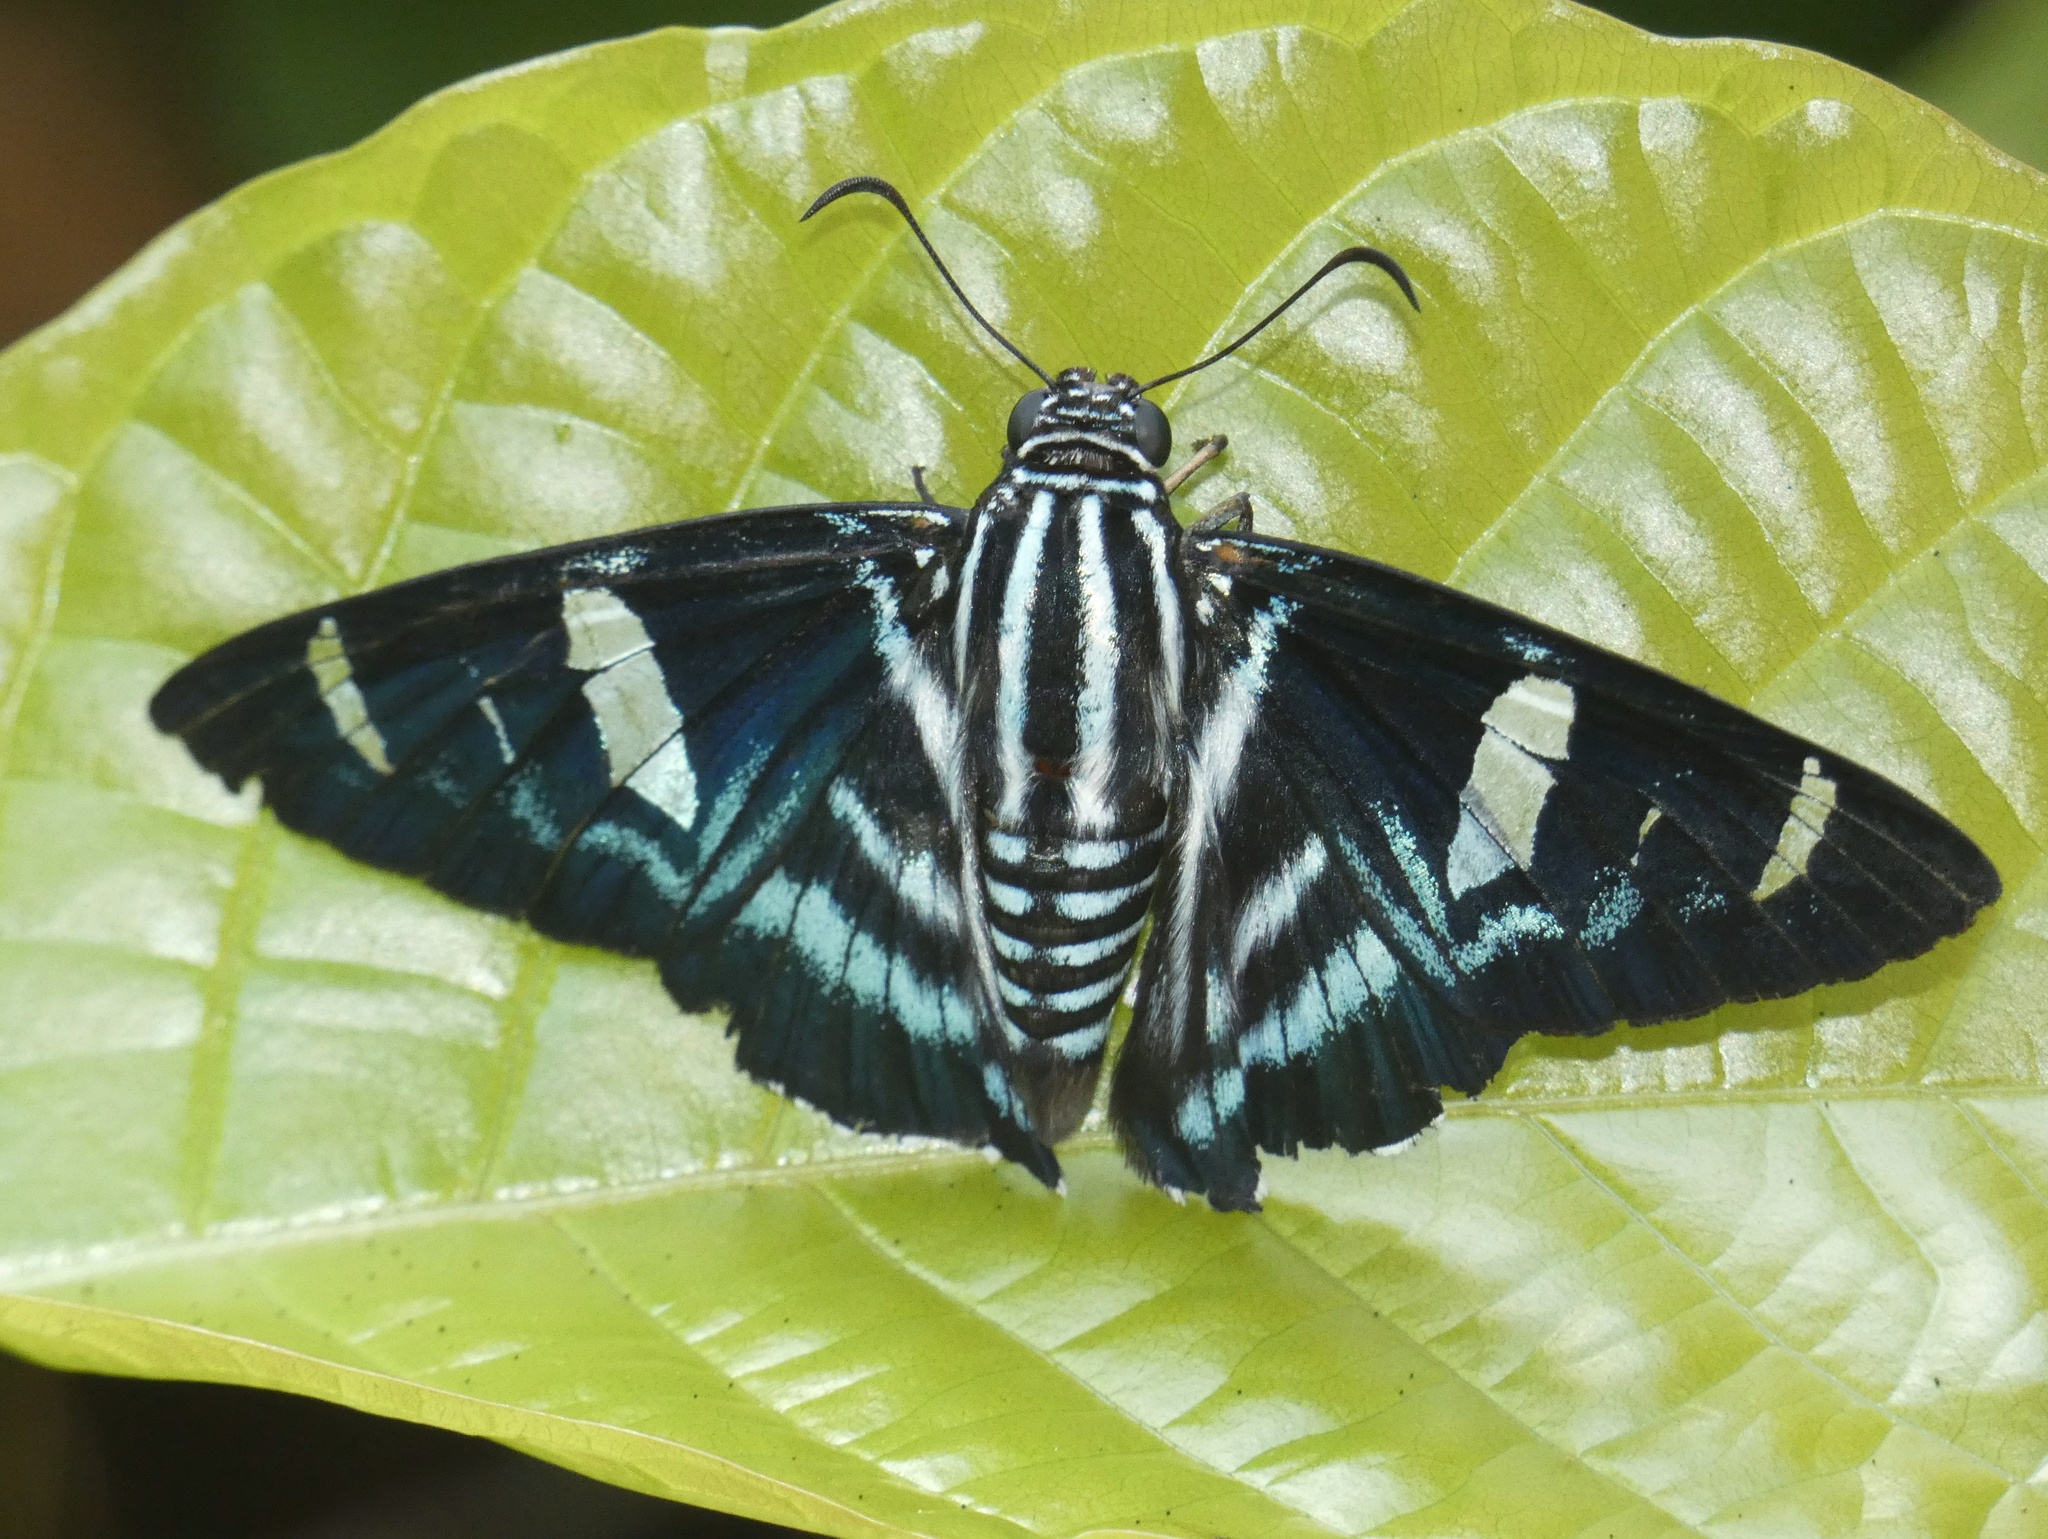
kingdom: Animalia
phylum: Arthropoda
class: Insecta
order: Lepidoptera
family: Hesperiidae
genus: Elbella
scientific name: Elbella patrobas
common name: Patrobas skipper
